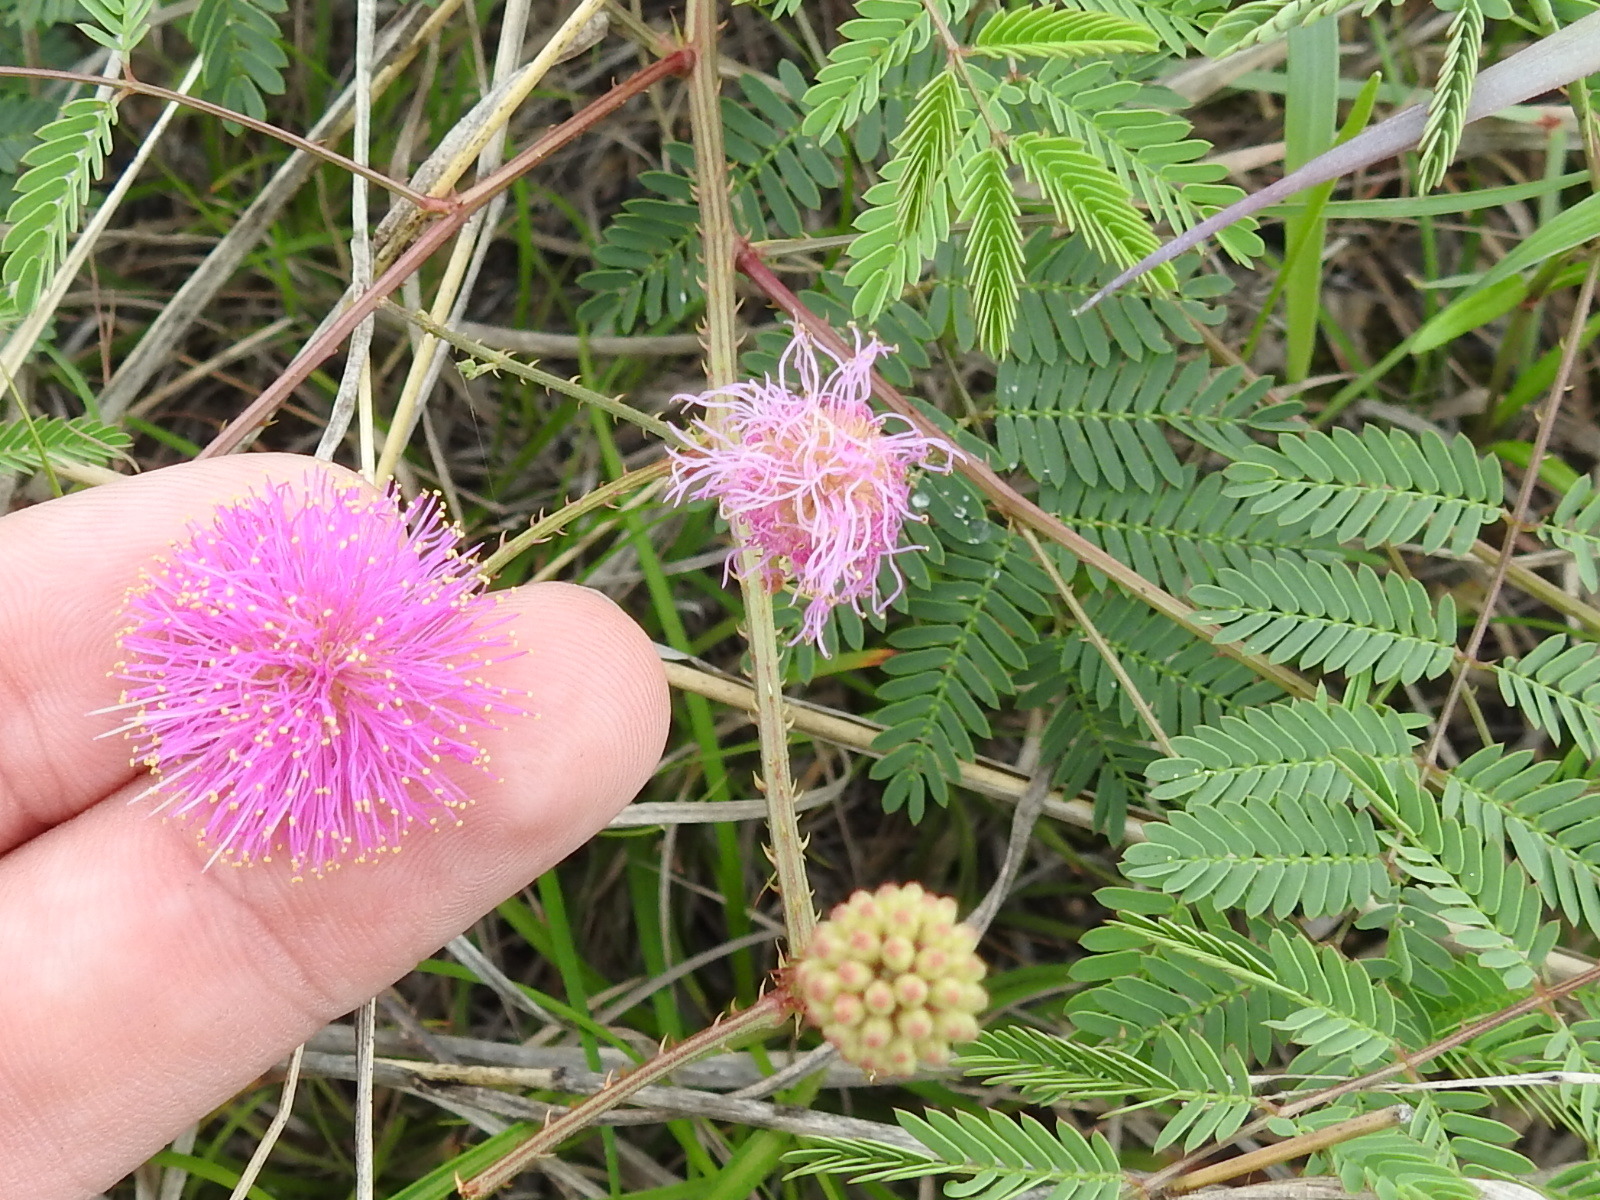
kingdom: Plantae
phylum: Tracheophyta
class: Magnoliopsida
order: Fabales
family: Fabaceae
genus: Mimosa
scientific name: Mimosa quadrivalvis
